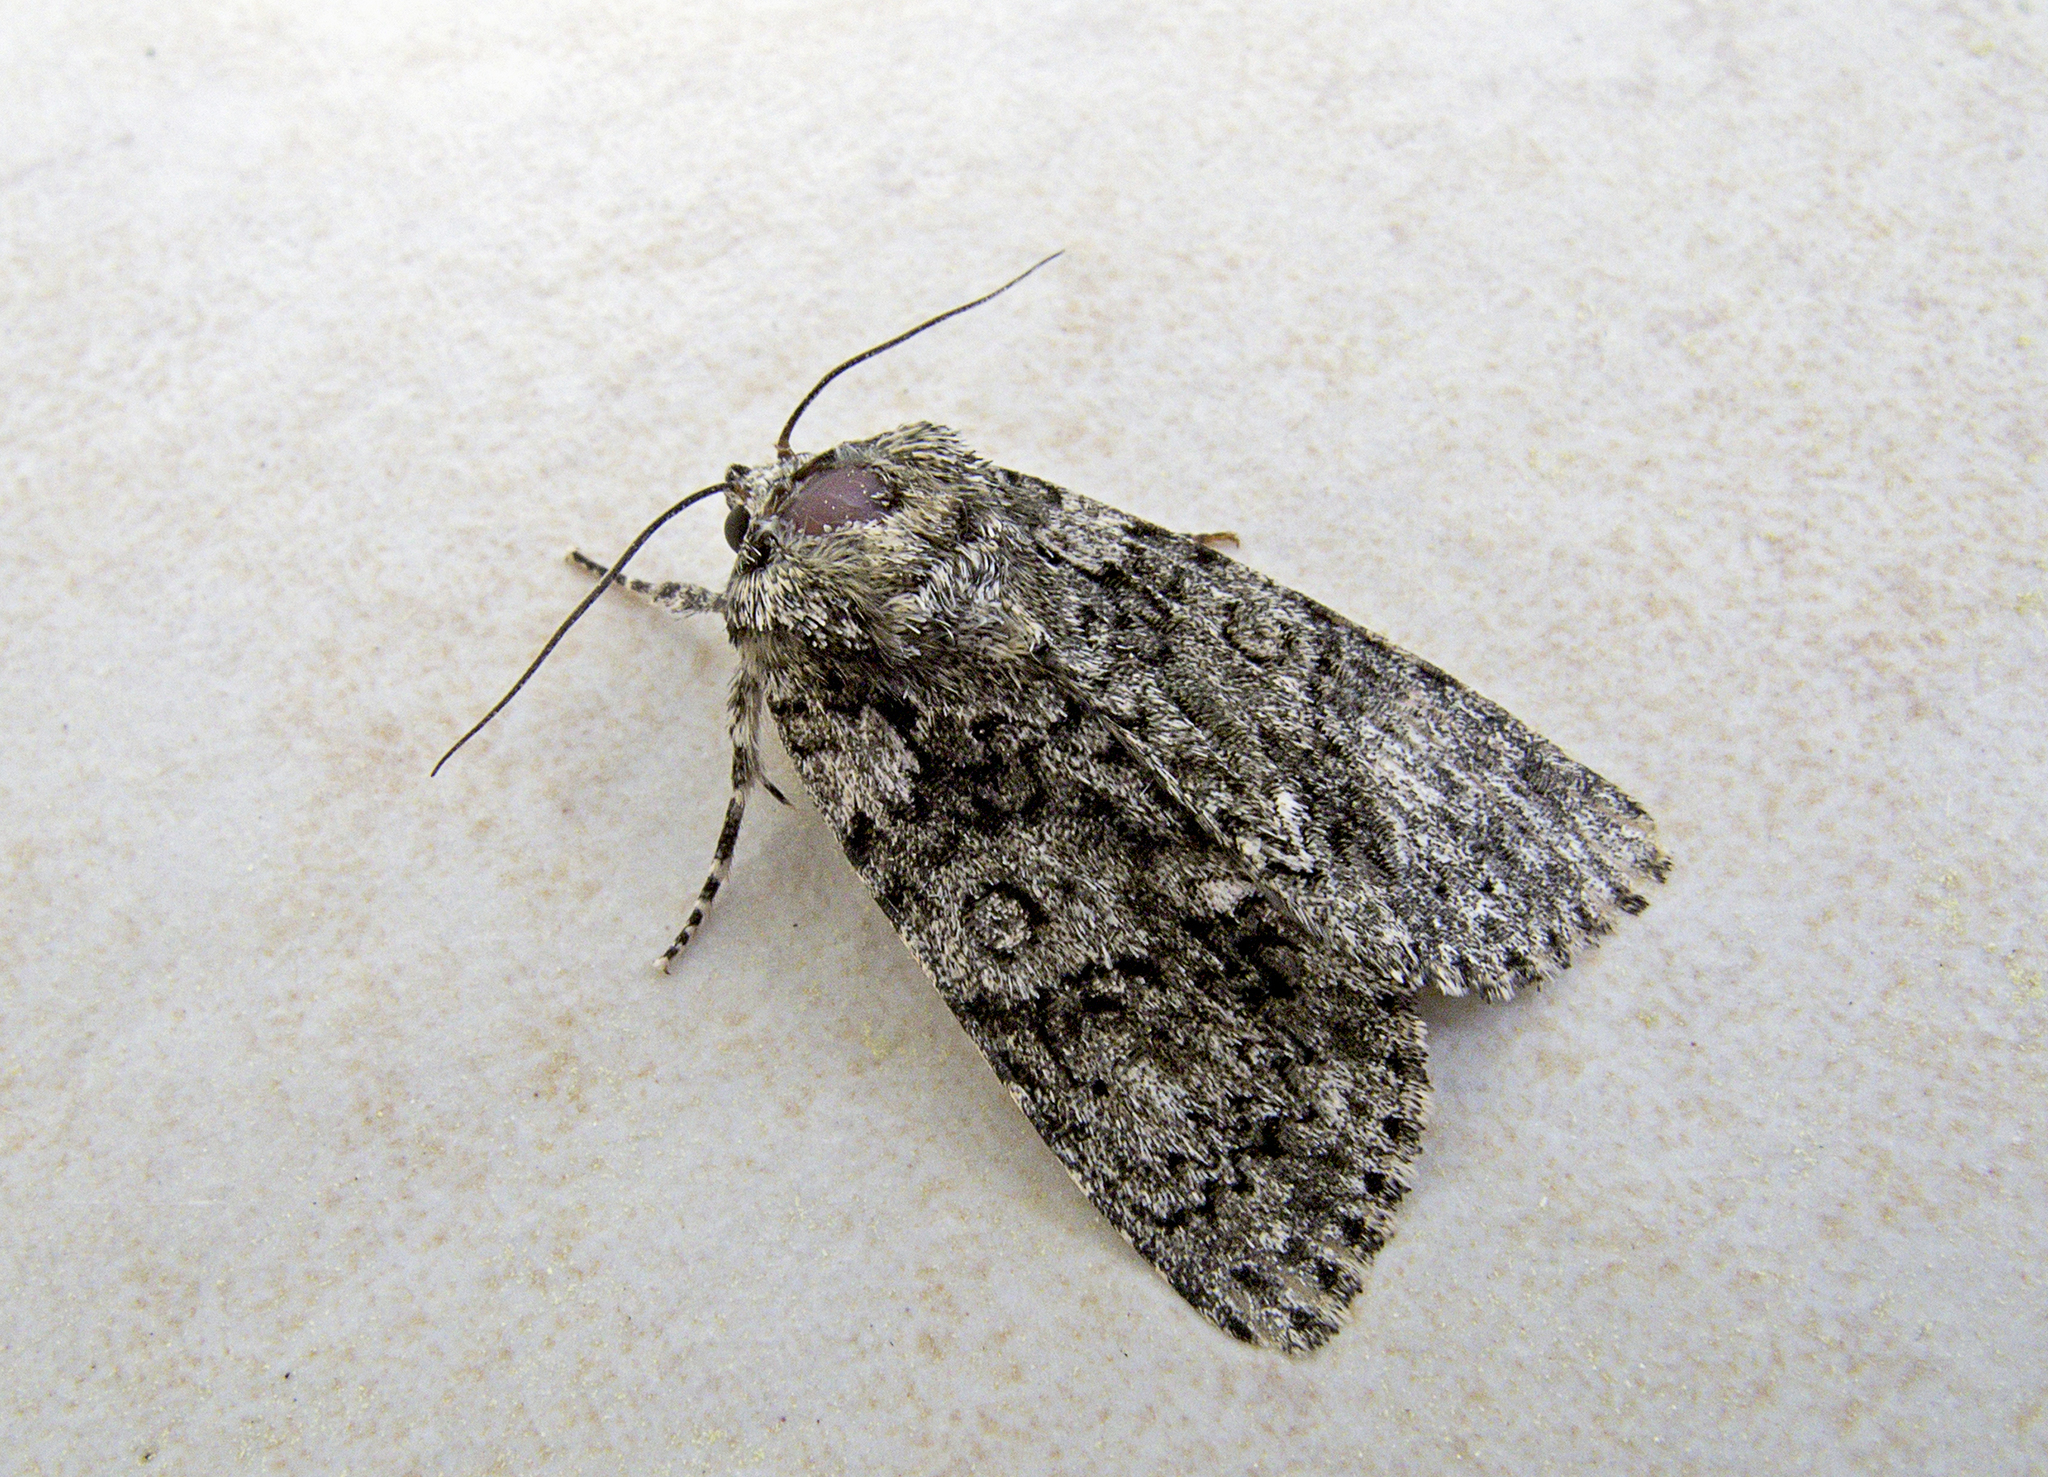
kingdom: Animalia
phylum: Arthropoda
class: Insecta
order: Lepidoptera
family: Noctuidae
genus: Acronicta
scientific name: Acronicta rumicis
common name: Knot grass
